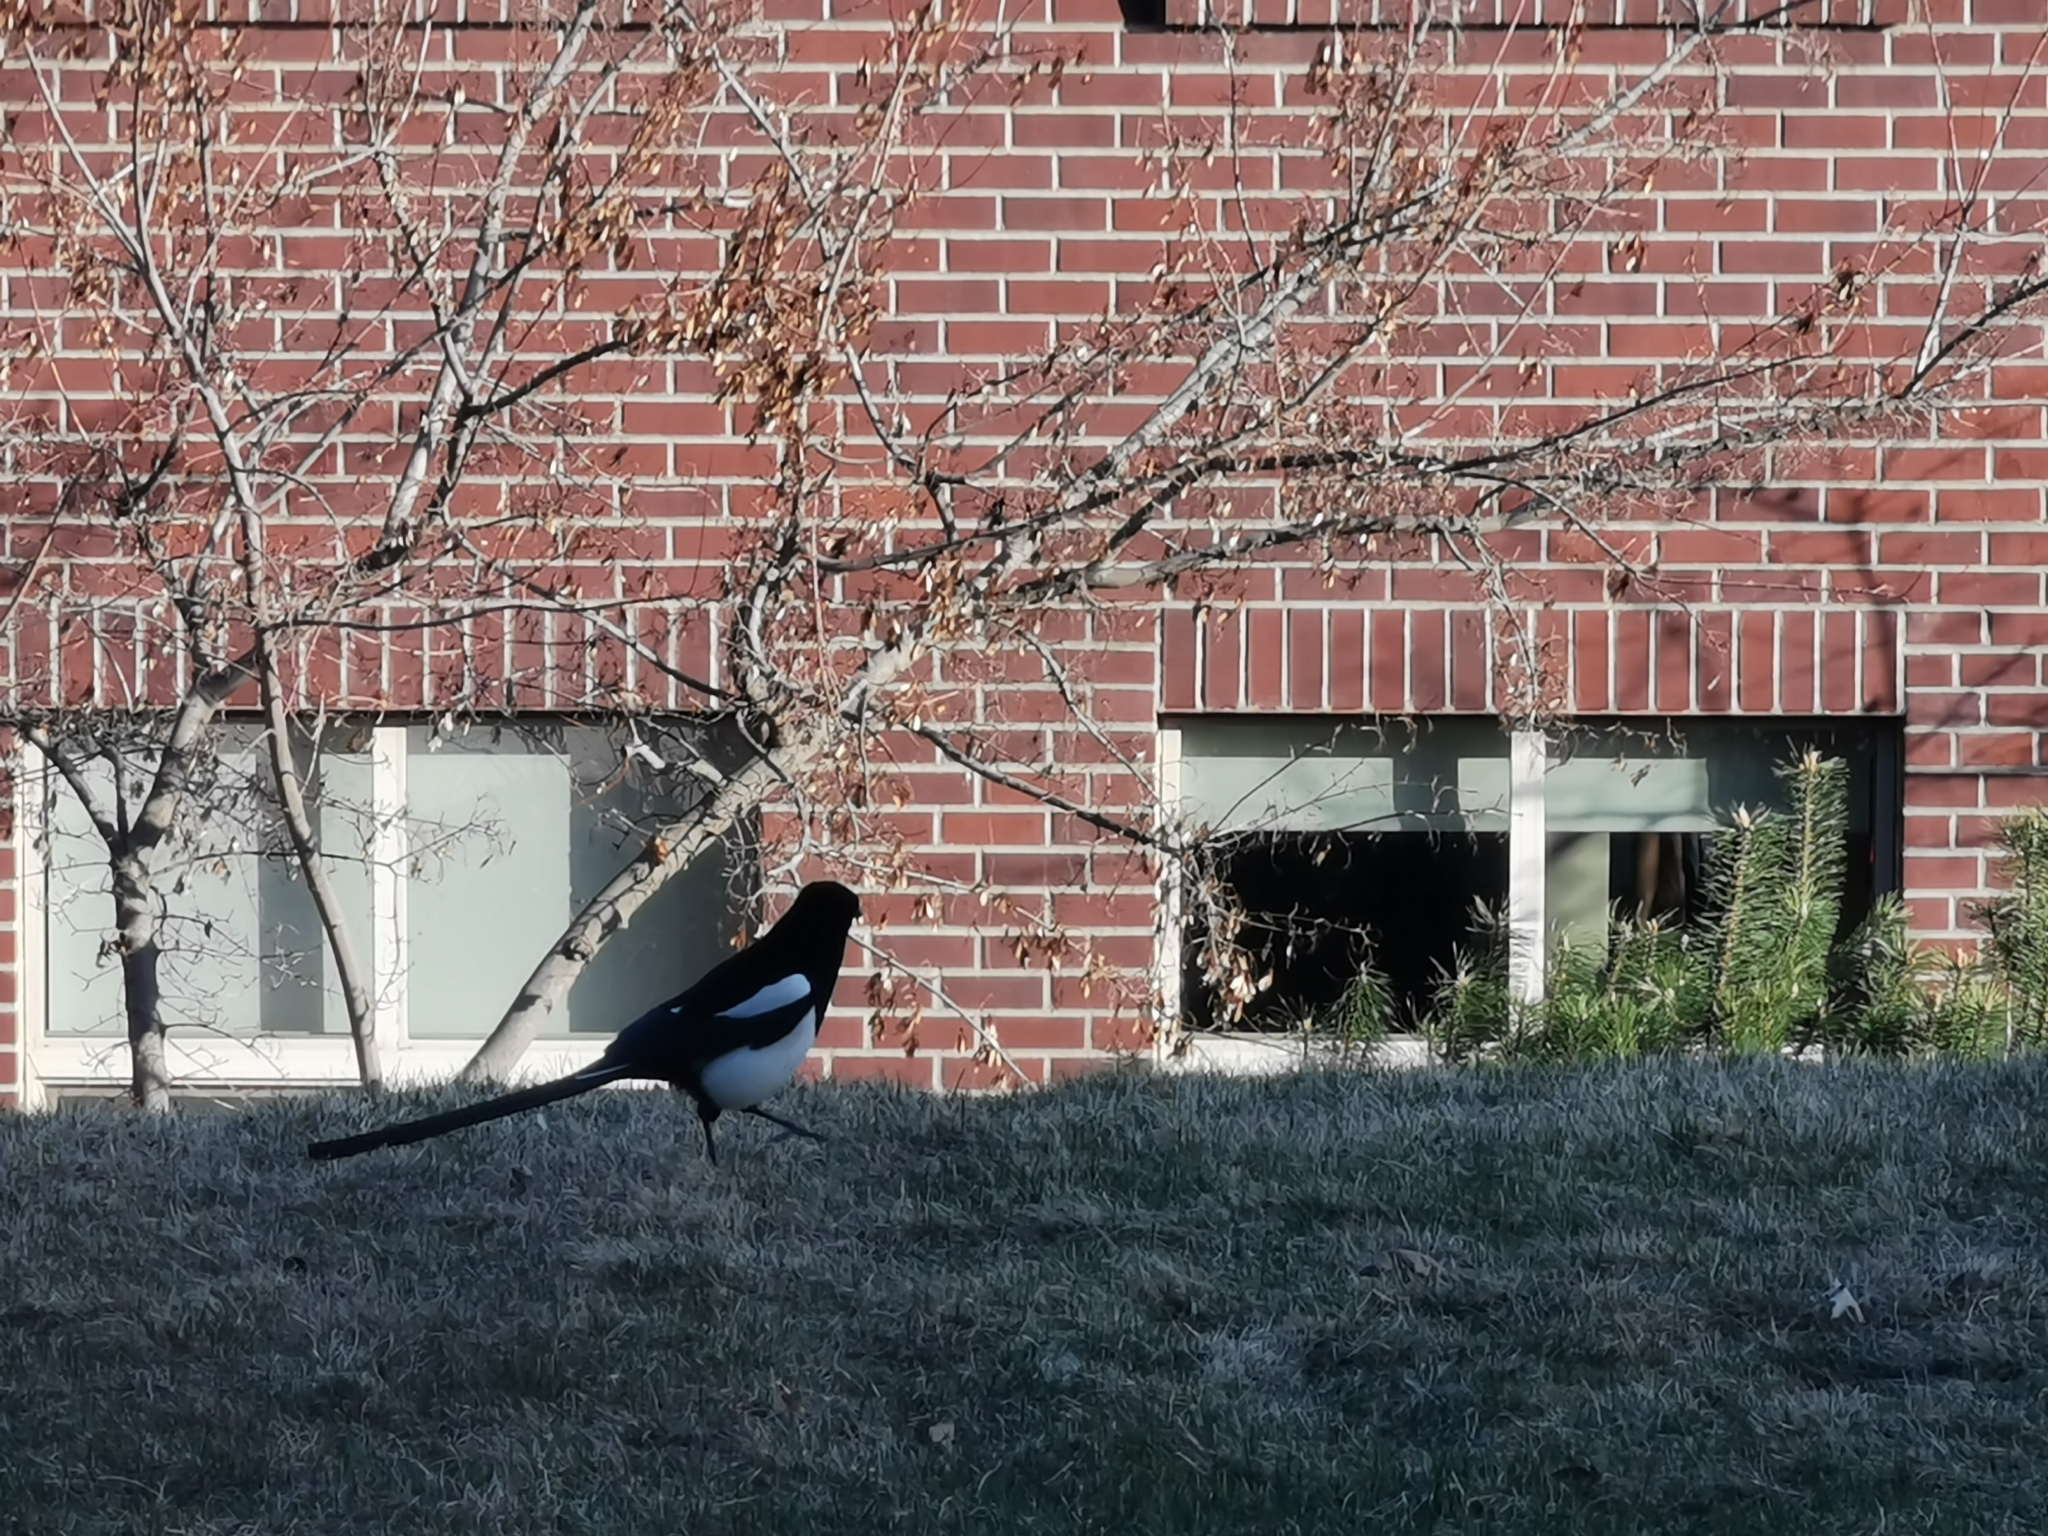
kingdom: Animalia
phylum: Chordata
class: Aves
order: Passeriformes
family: Corvidae
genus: Pica
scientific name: Pica hudsonia
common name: Black-billed magpie
